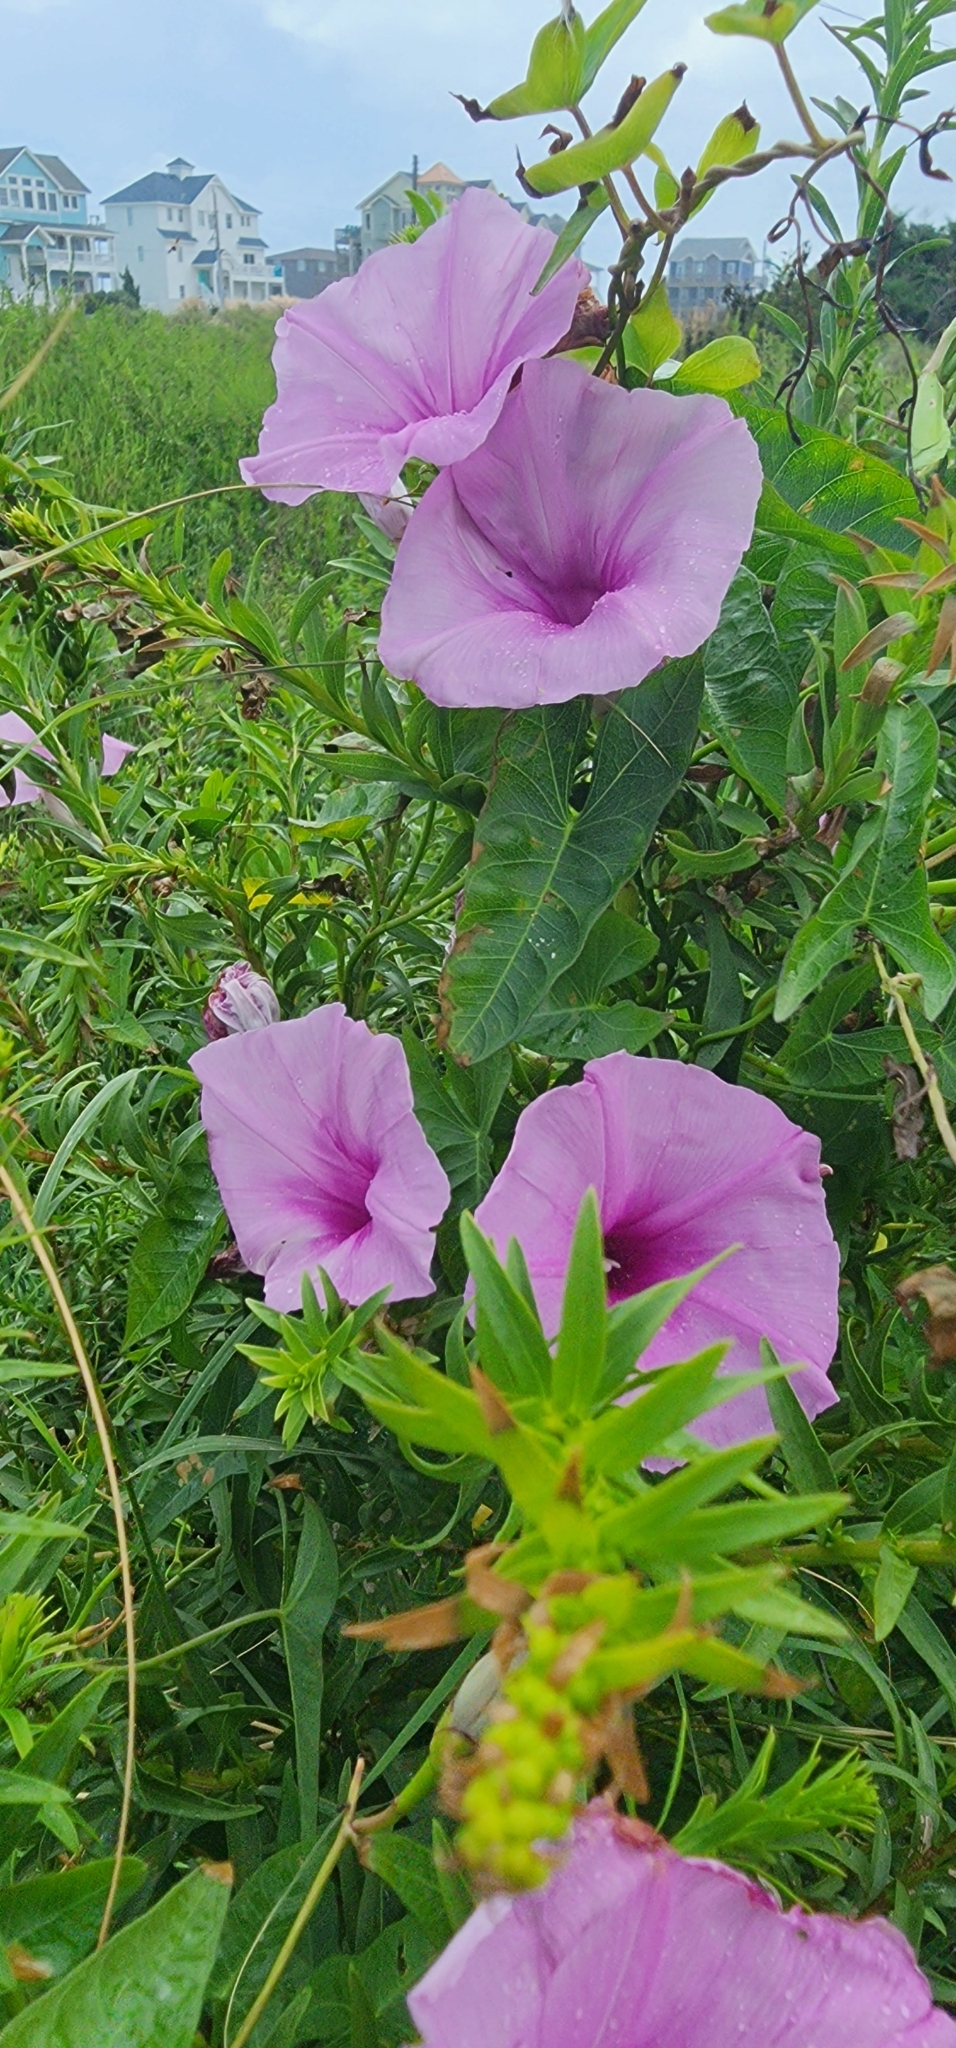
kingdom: Plantae
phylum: Tracheophyta
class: Magnoliopsida
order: Solanales
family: Convolvulaceae
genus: Ipomoea
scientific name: Ipomoea sagittata
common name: Saltmarsh morning glory
